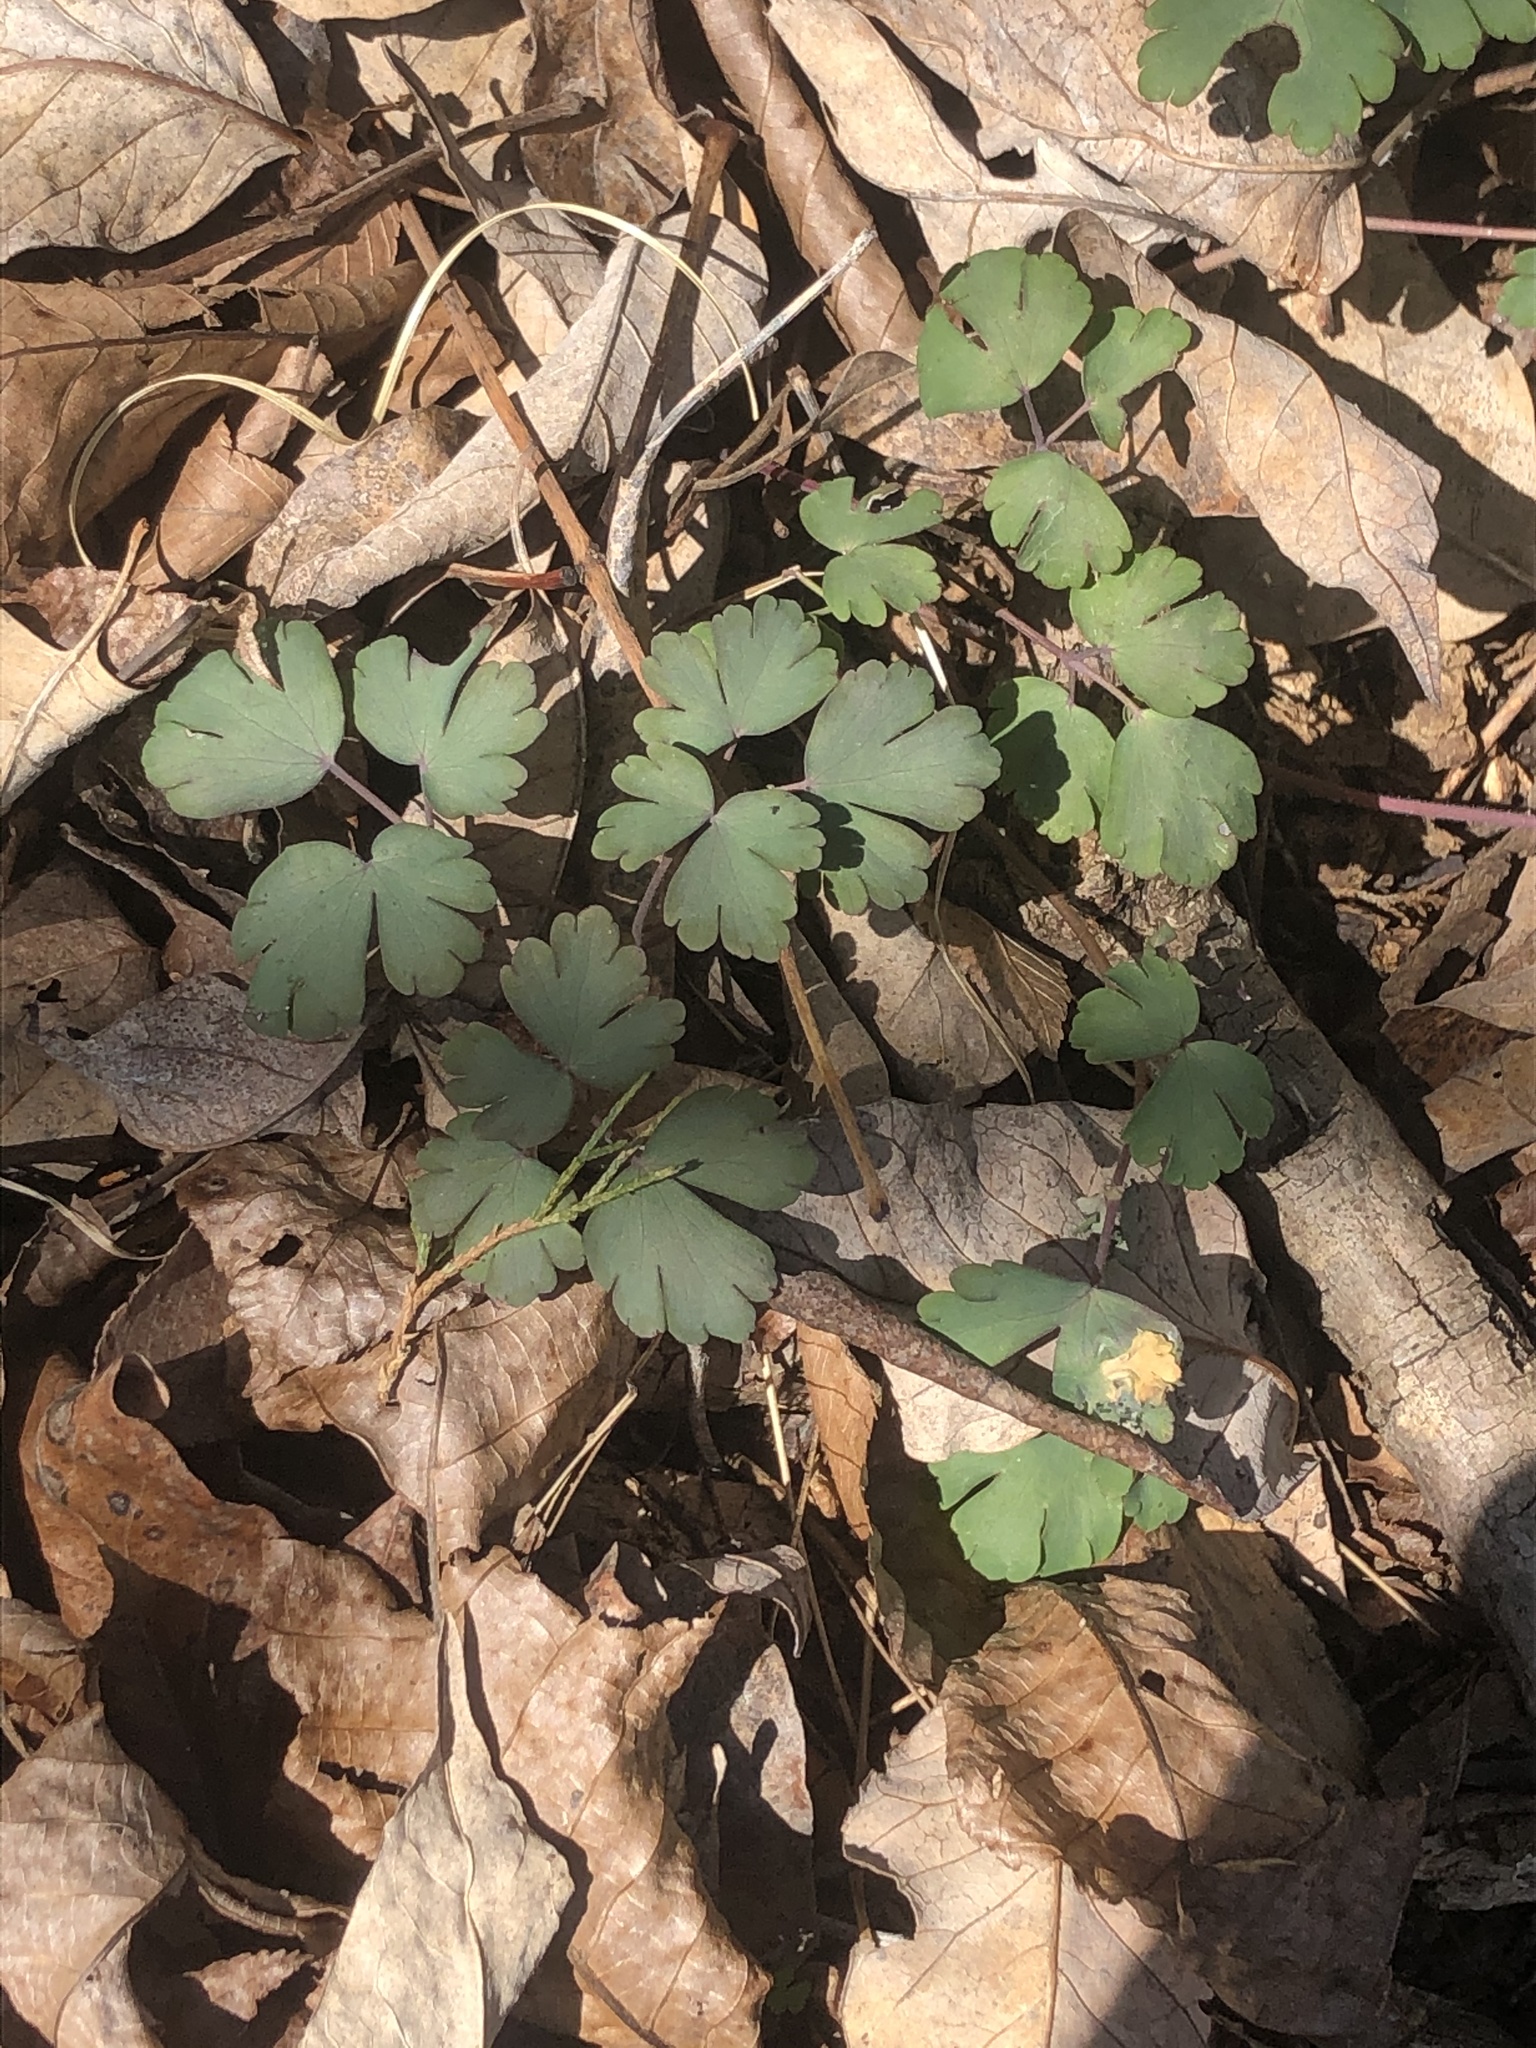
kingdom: Plantae
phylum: Tracheophyta
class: Magnoliopsida
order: Ranunculales
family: Ranunculaceae
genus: Aquilegia
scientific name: Aquilegia canadensis
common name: American columbine
